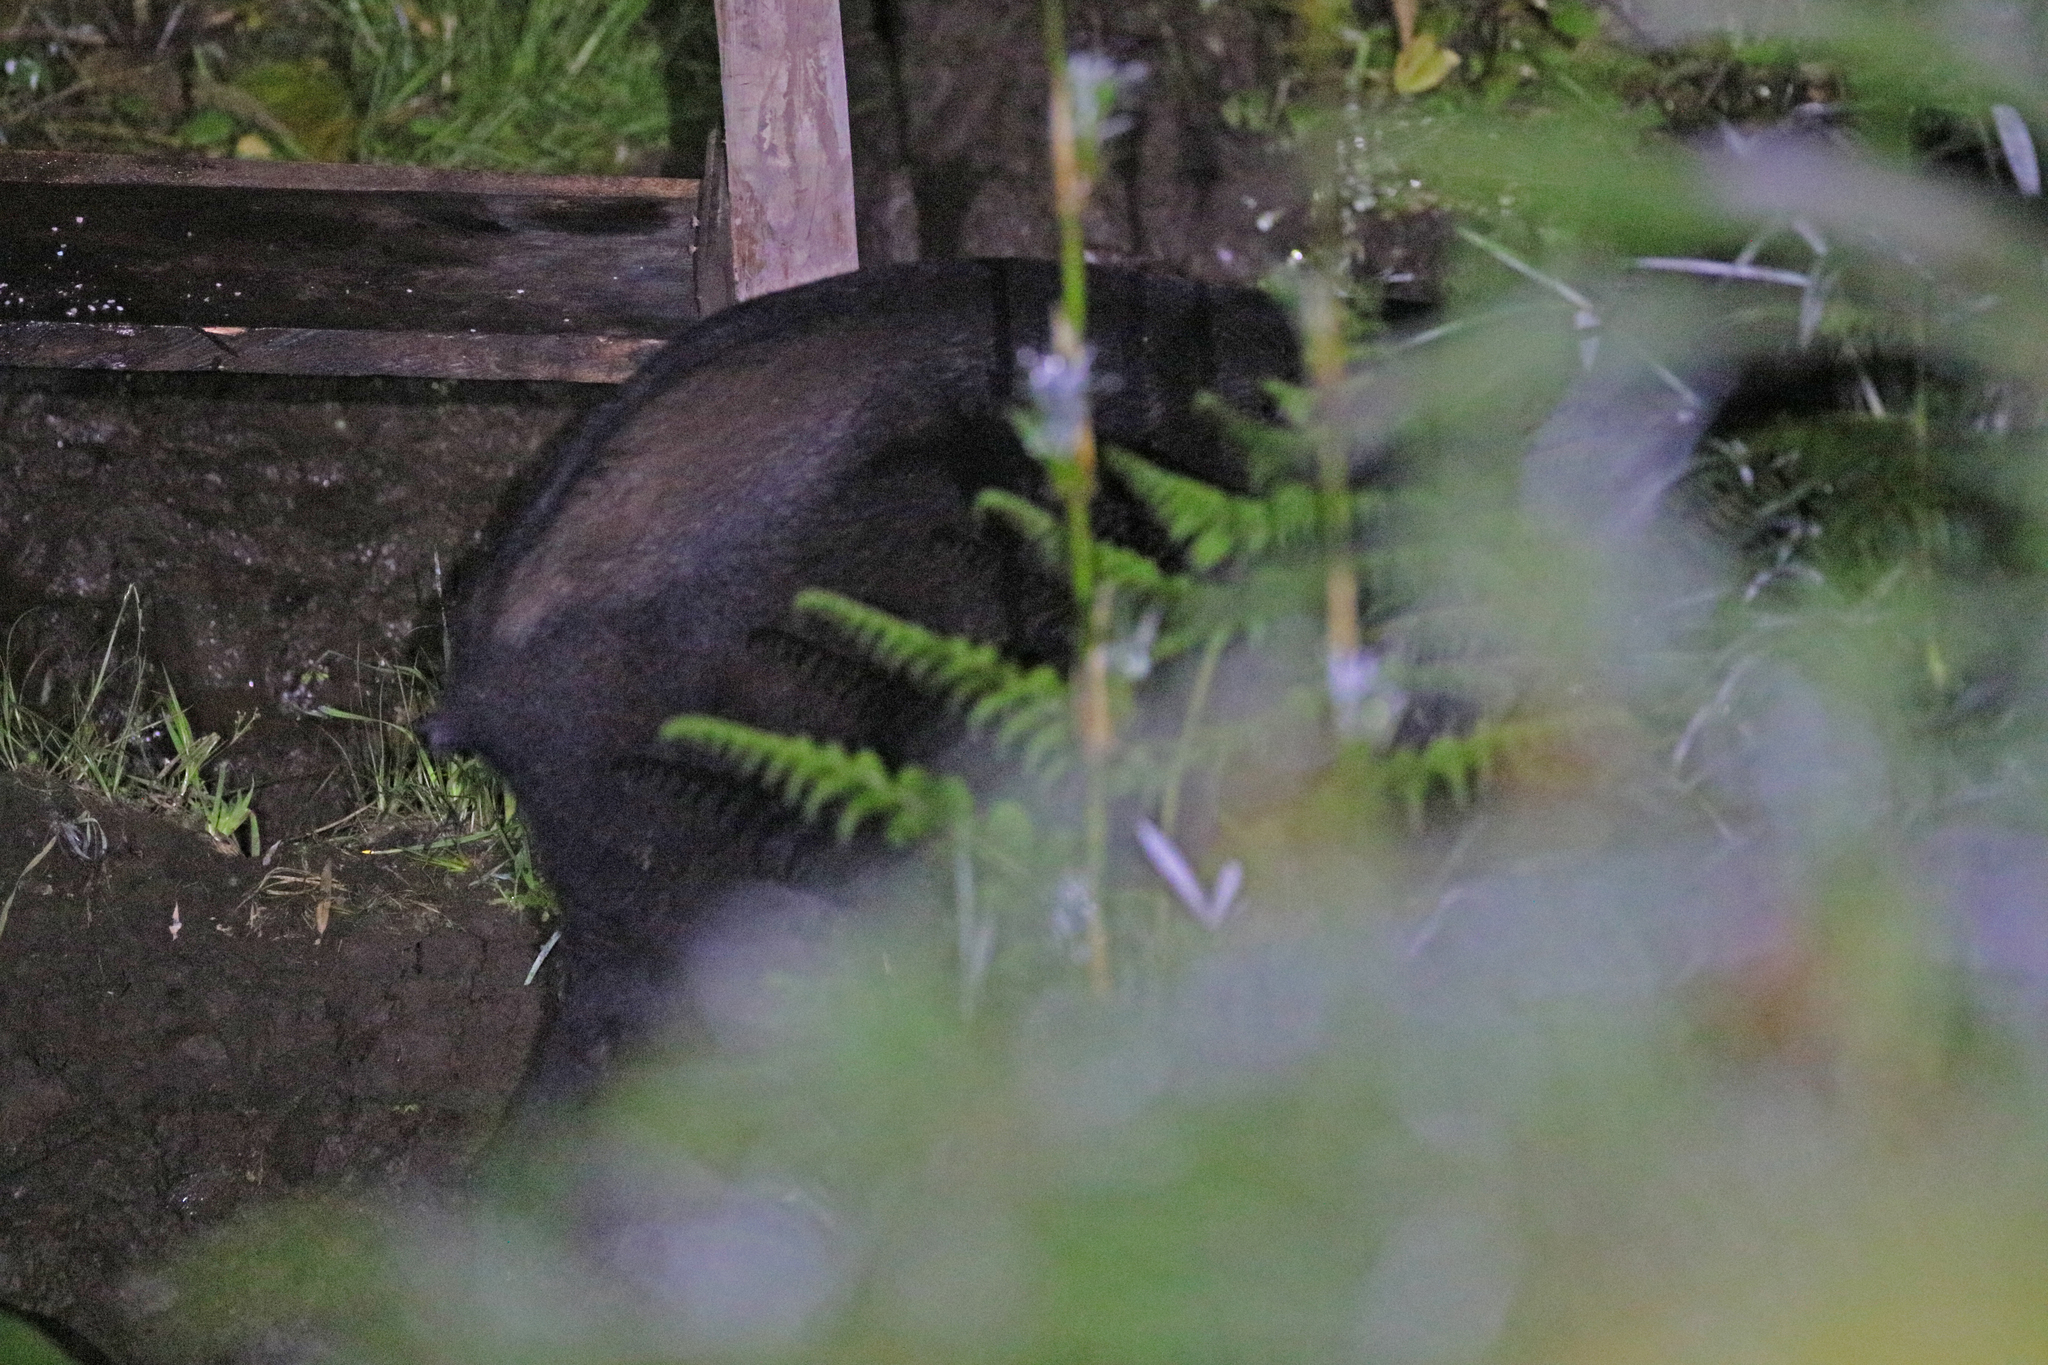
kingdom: Animalia
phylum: Chordata
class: Mammalia
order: Perissodactyla
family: Tapiridae
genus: Tapirus
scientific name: Tapirus pinchaque
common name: Mountain tapir
